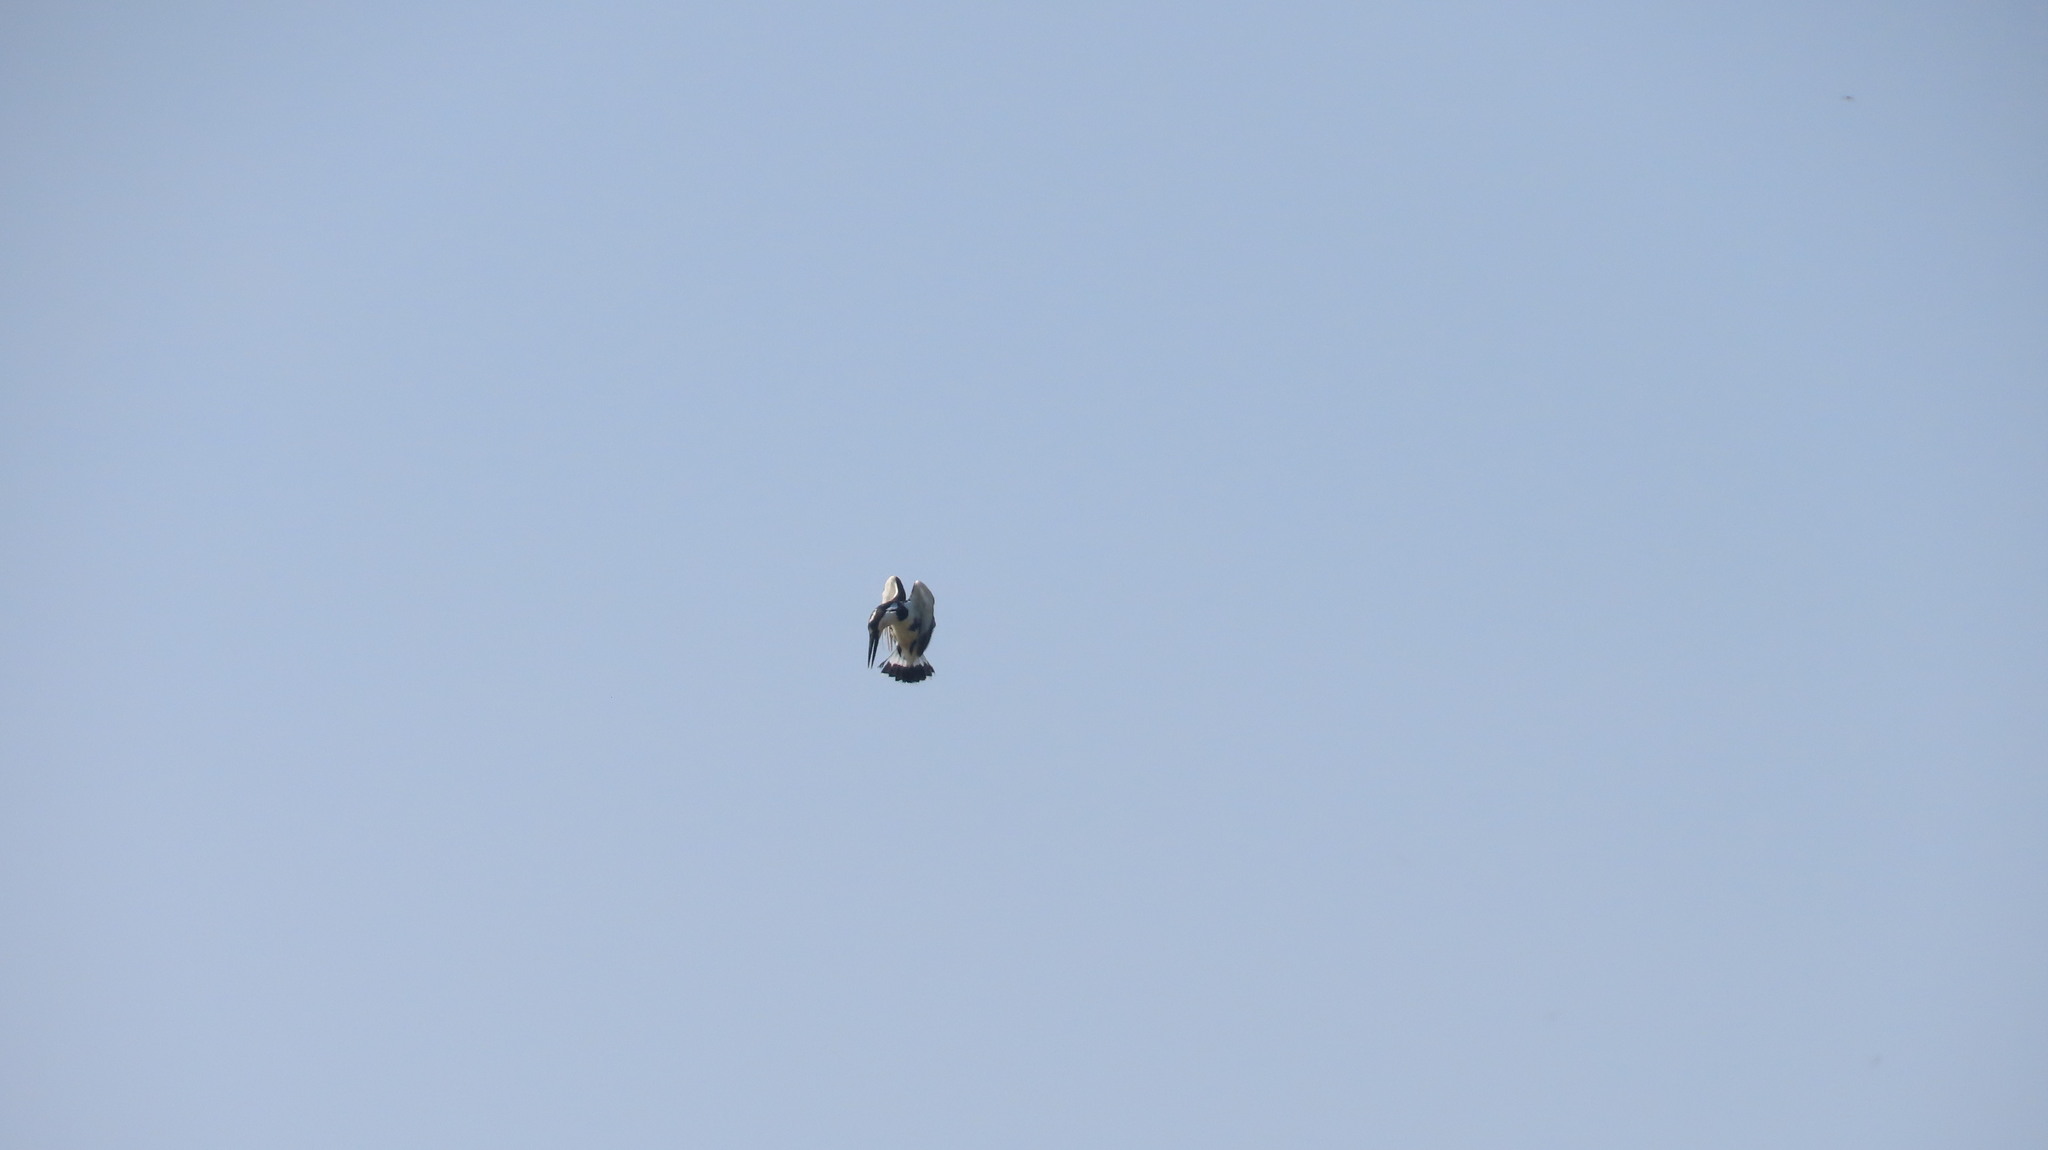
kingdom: Animalia
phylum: Chordata
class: Aves
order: Coraciiformes
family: Alcedinidae
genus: Ceryle
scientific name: Ceryle rudis
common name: Pied kingfisher
